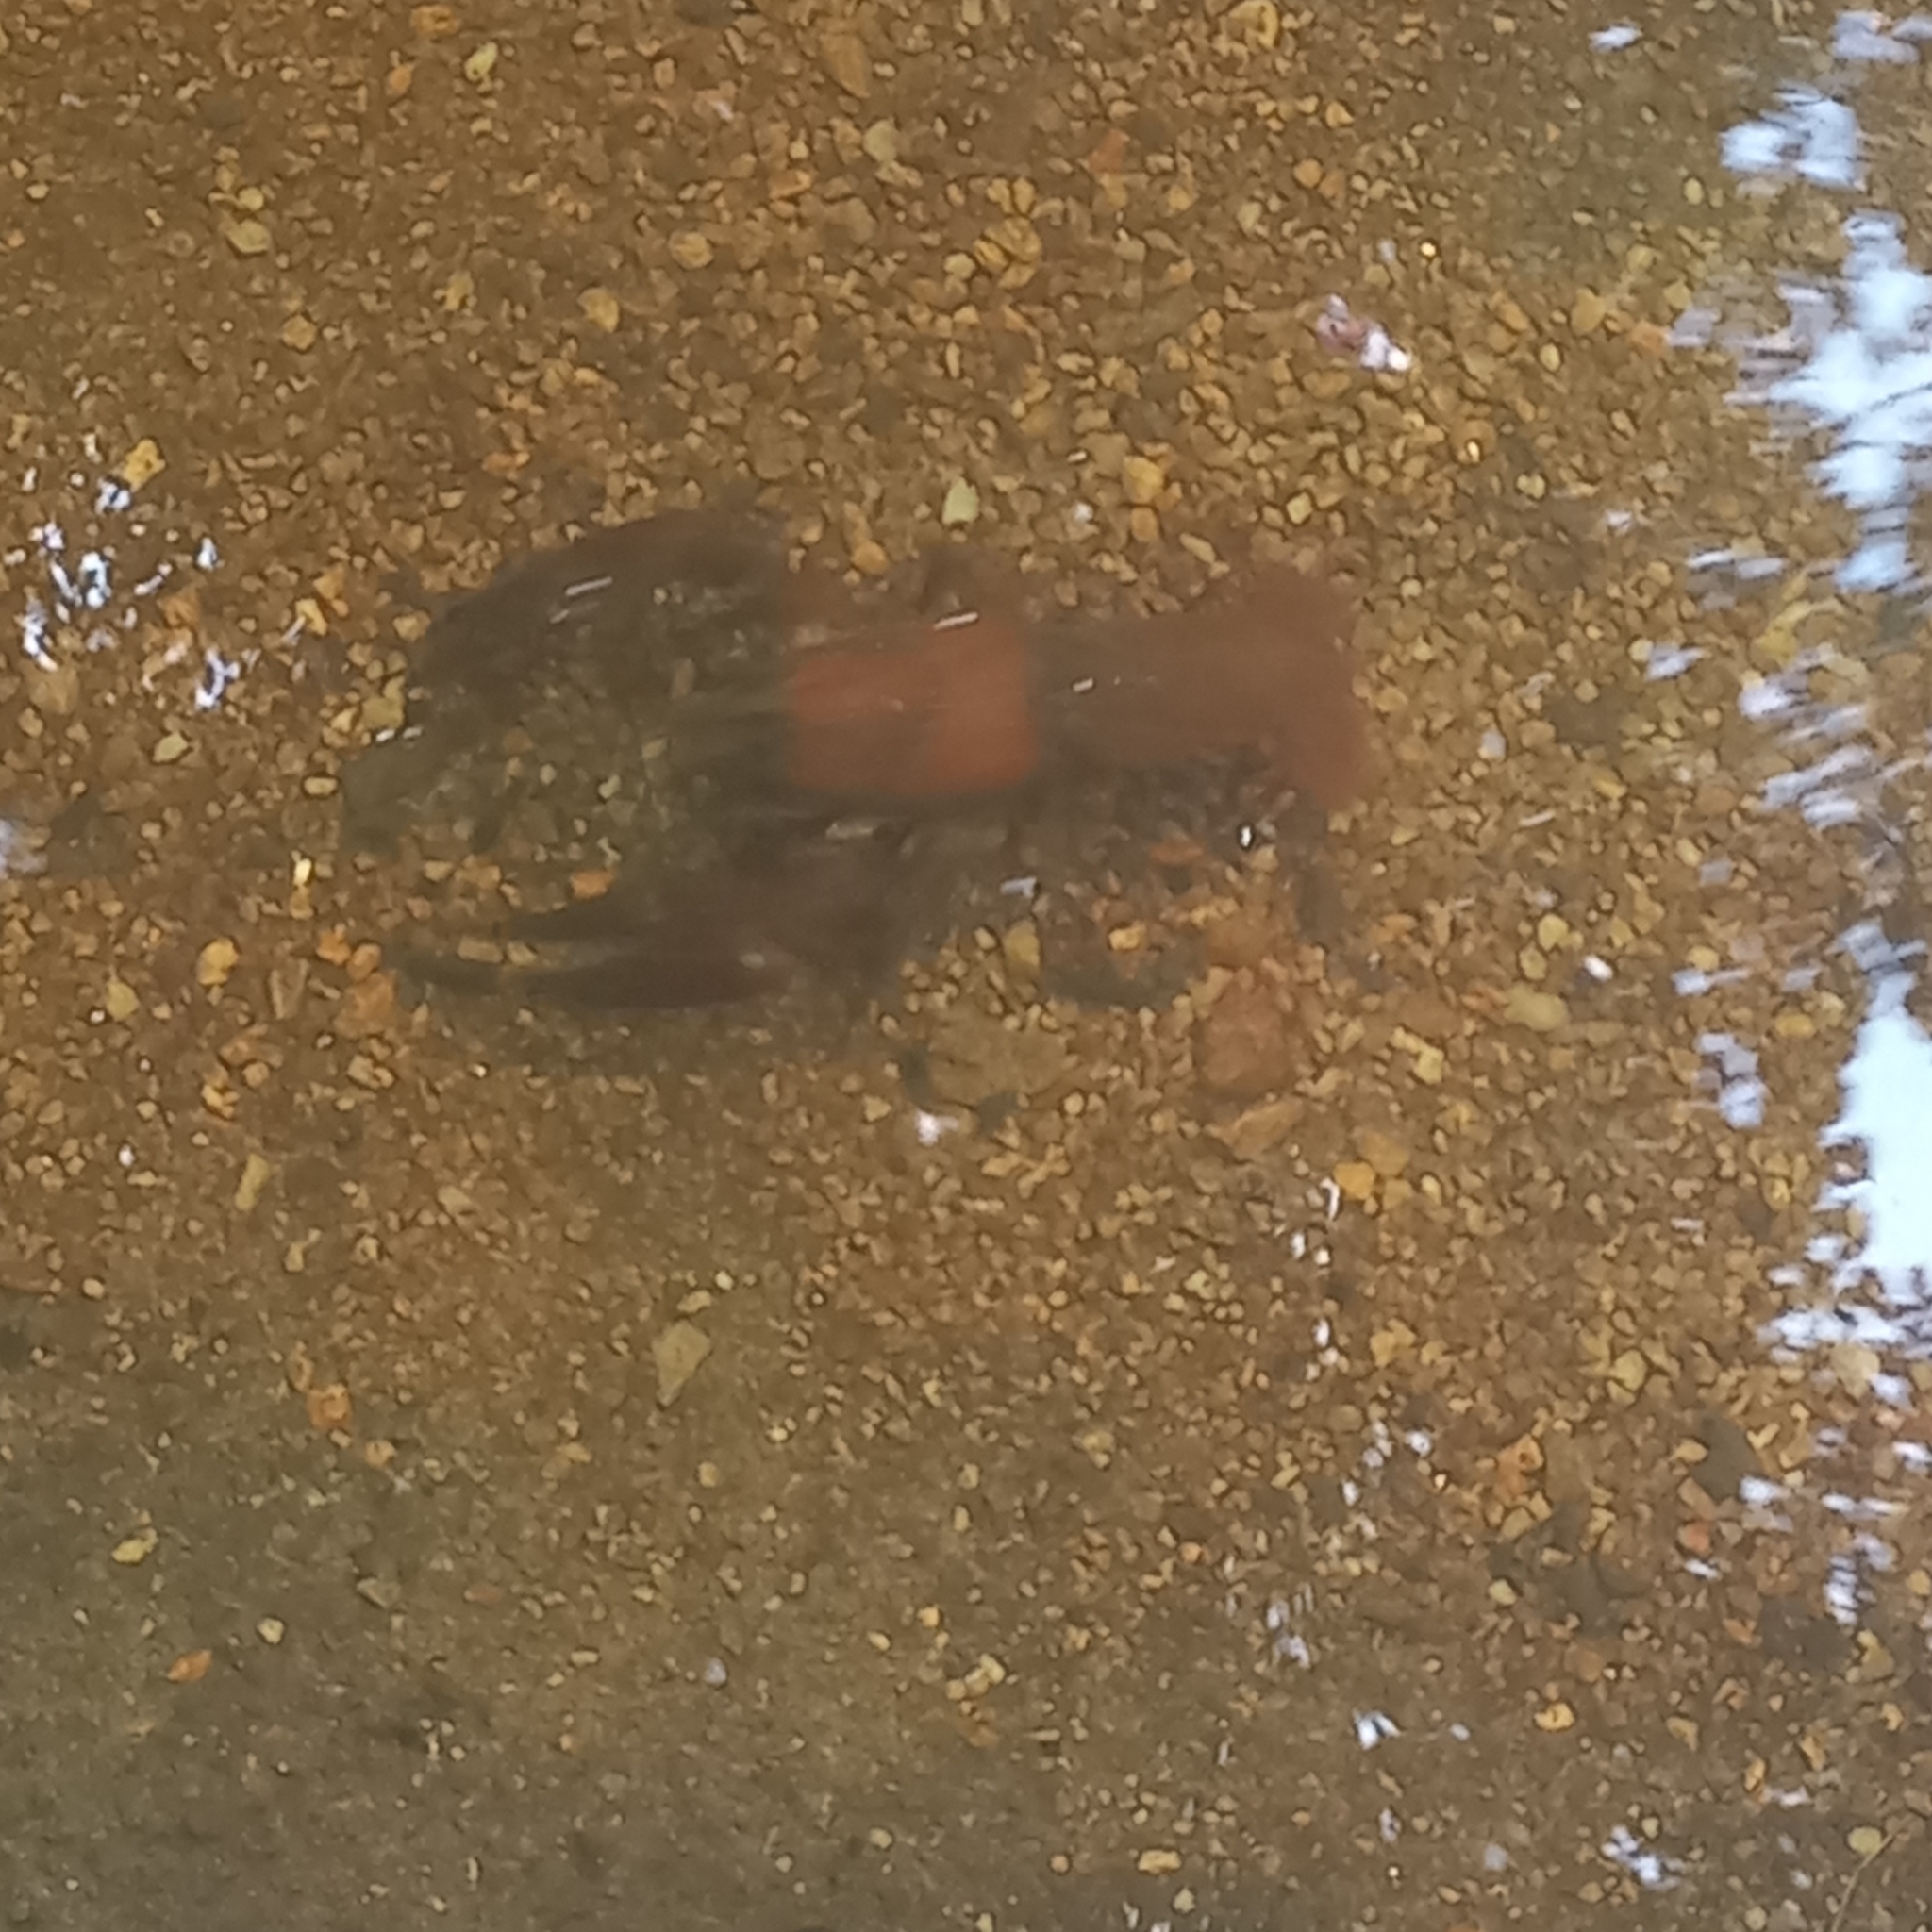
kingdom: Animalia
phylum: Arthropoda
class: Malacostraca
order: Decapoda
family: Astacidae
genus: Pacifastacus
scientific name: Pacifastacus leniusculus
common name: Signal crayfish
